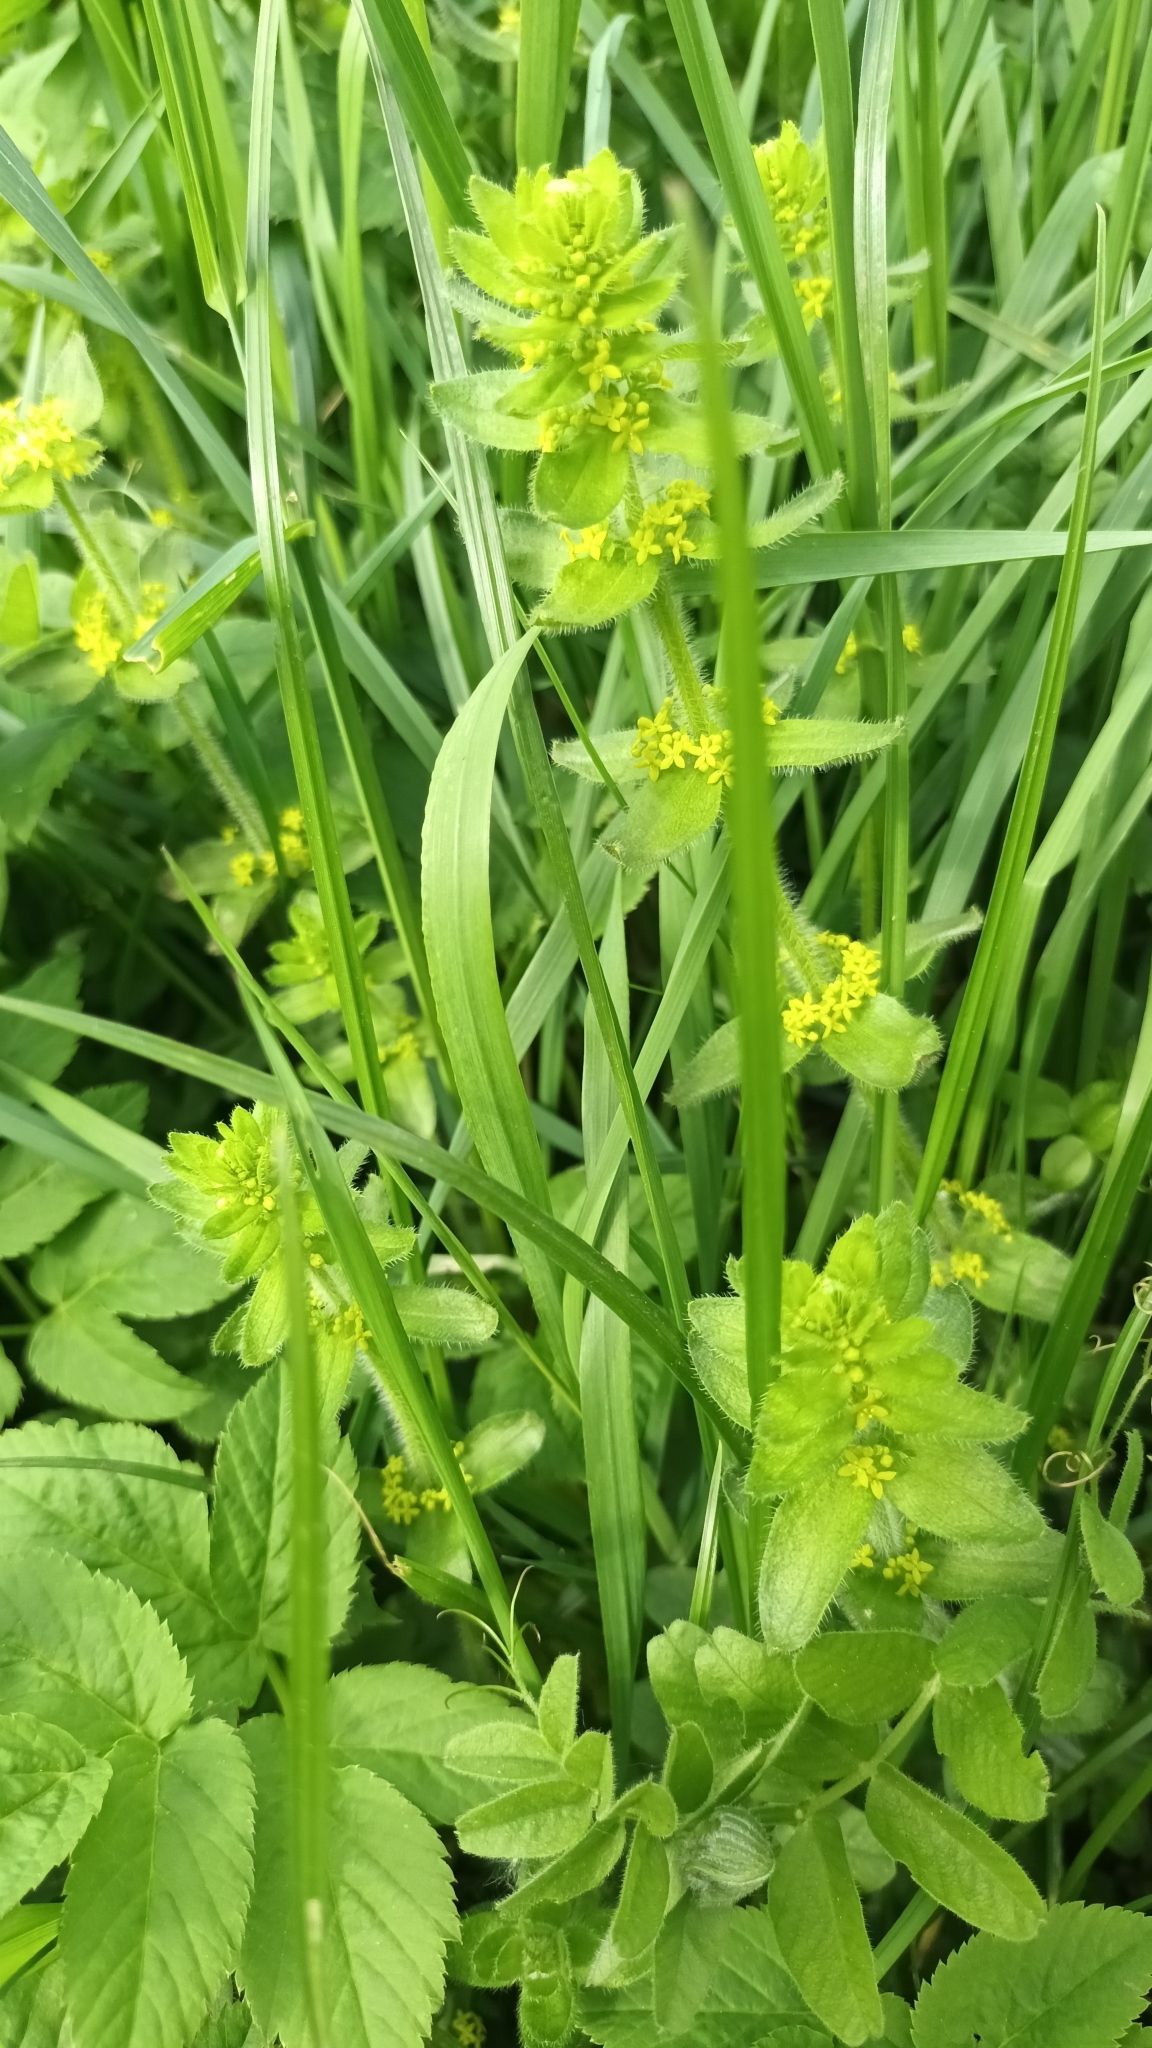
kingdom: Plantae
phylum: Tracheophyta
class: Magnoliopsida
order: Gentianales
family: Rubiaceae
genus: Cruciata
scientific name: Cruciata laevipes
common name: Crosswort
